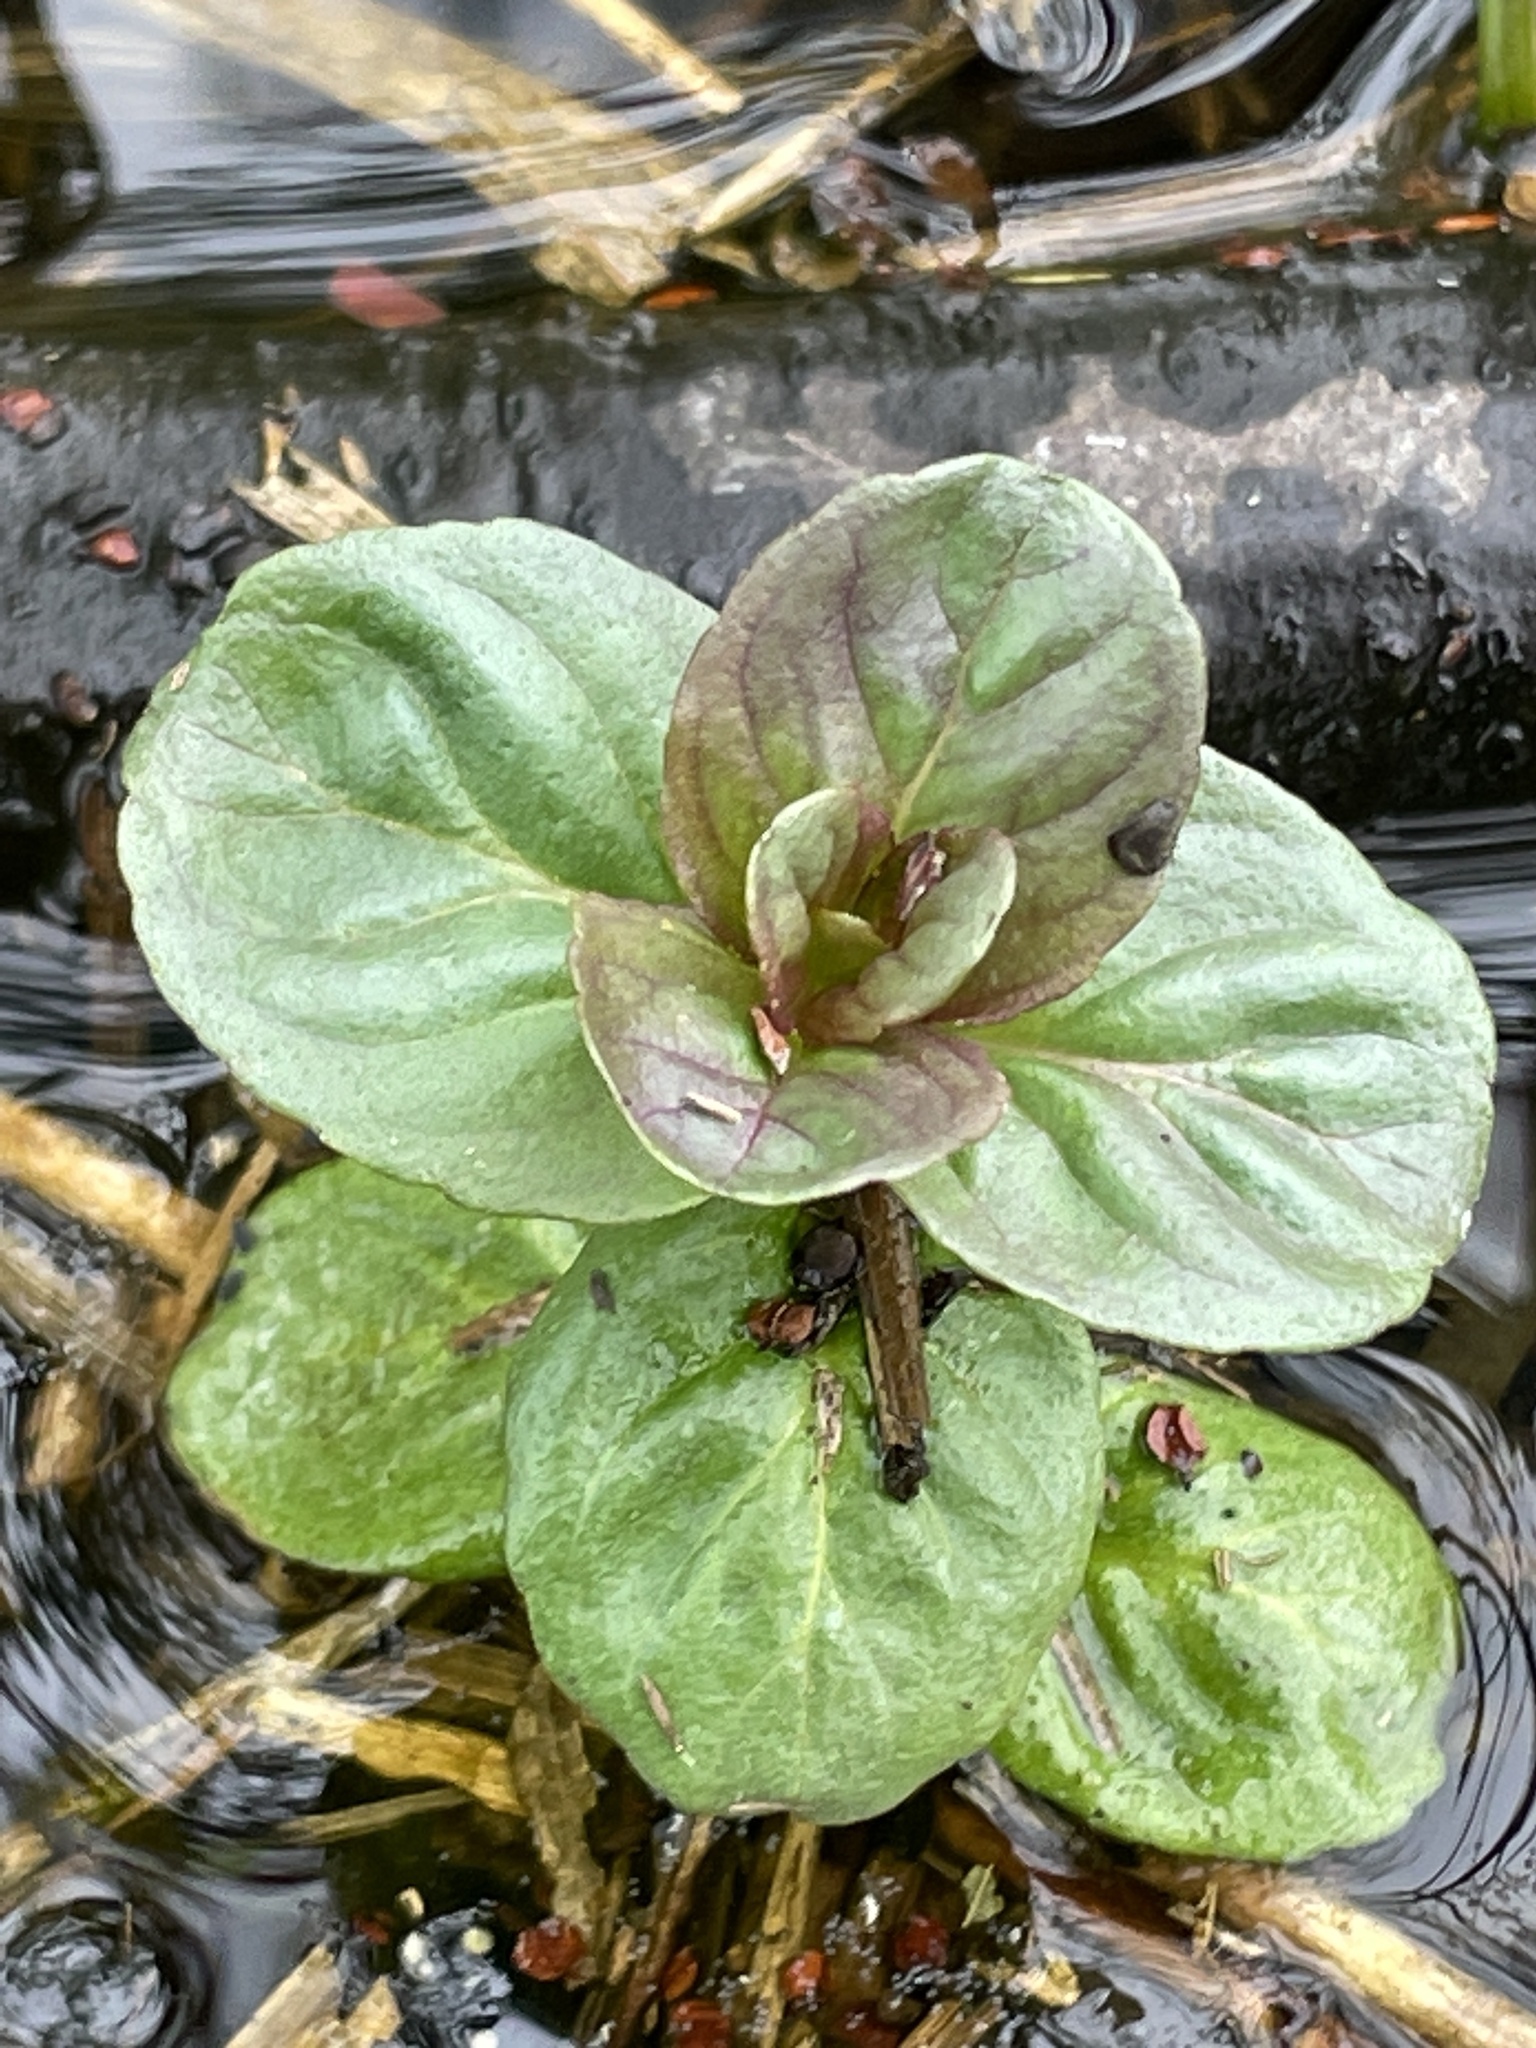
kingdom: Plantae
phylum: Tracheophyta
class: Magnoliopsida
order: Lamiales
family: Lamiaceae
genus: Mentha
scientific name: Mentha aquatica
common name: Water mint
